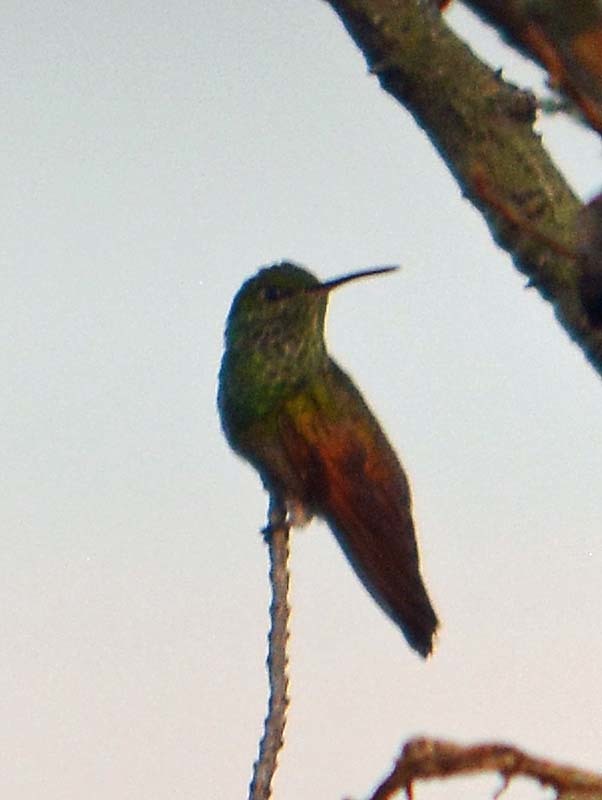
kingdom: Animalia
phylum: Chordata
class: Aves
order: Apodiformes
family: Trochilidae
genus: Saucerottia
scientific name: Saucerottia beryllina
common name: Berylline hummingbird
